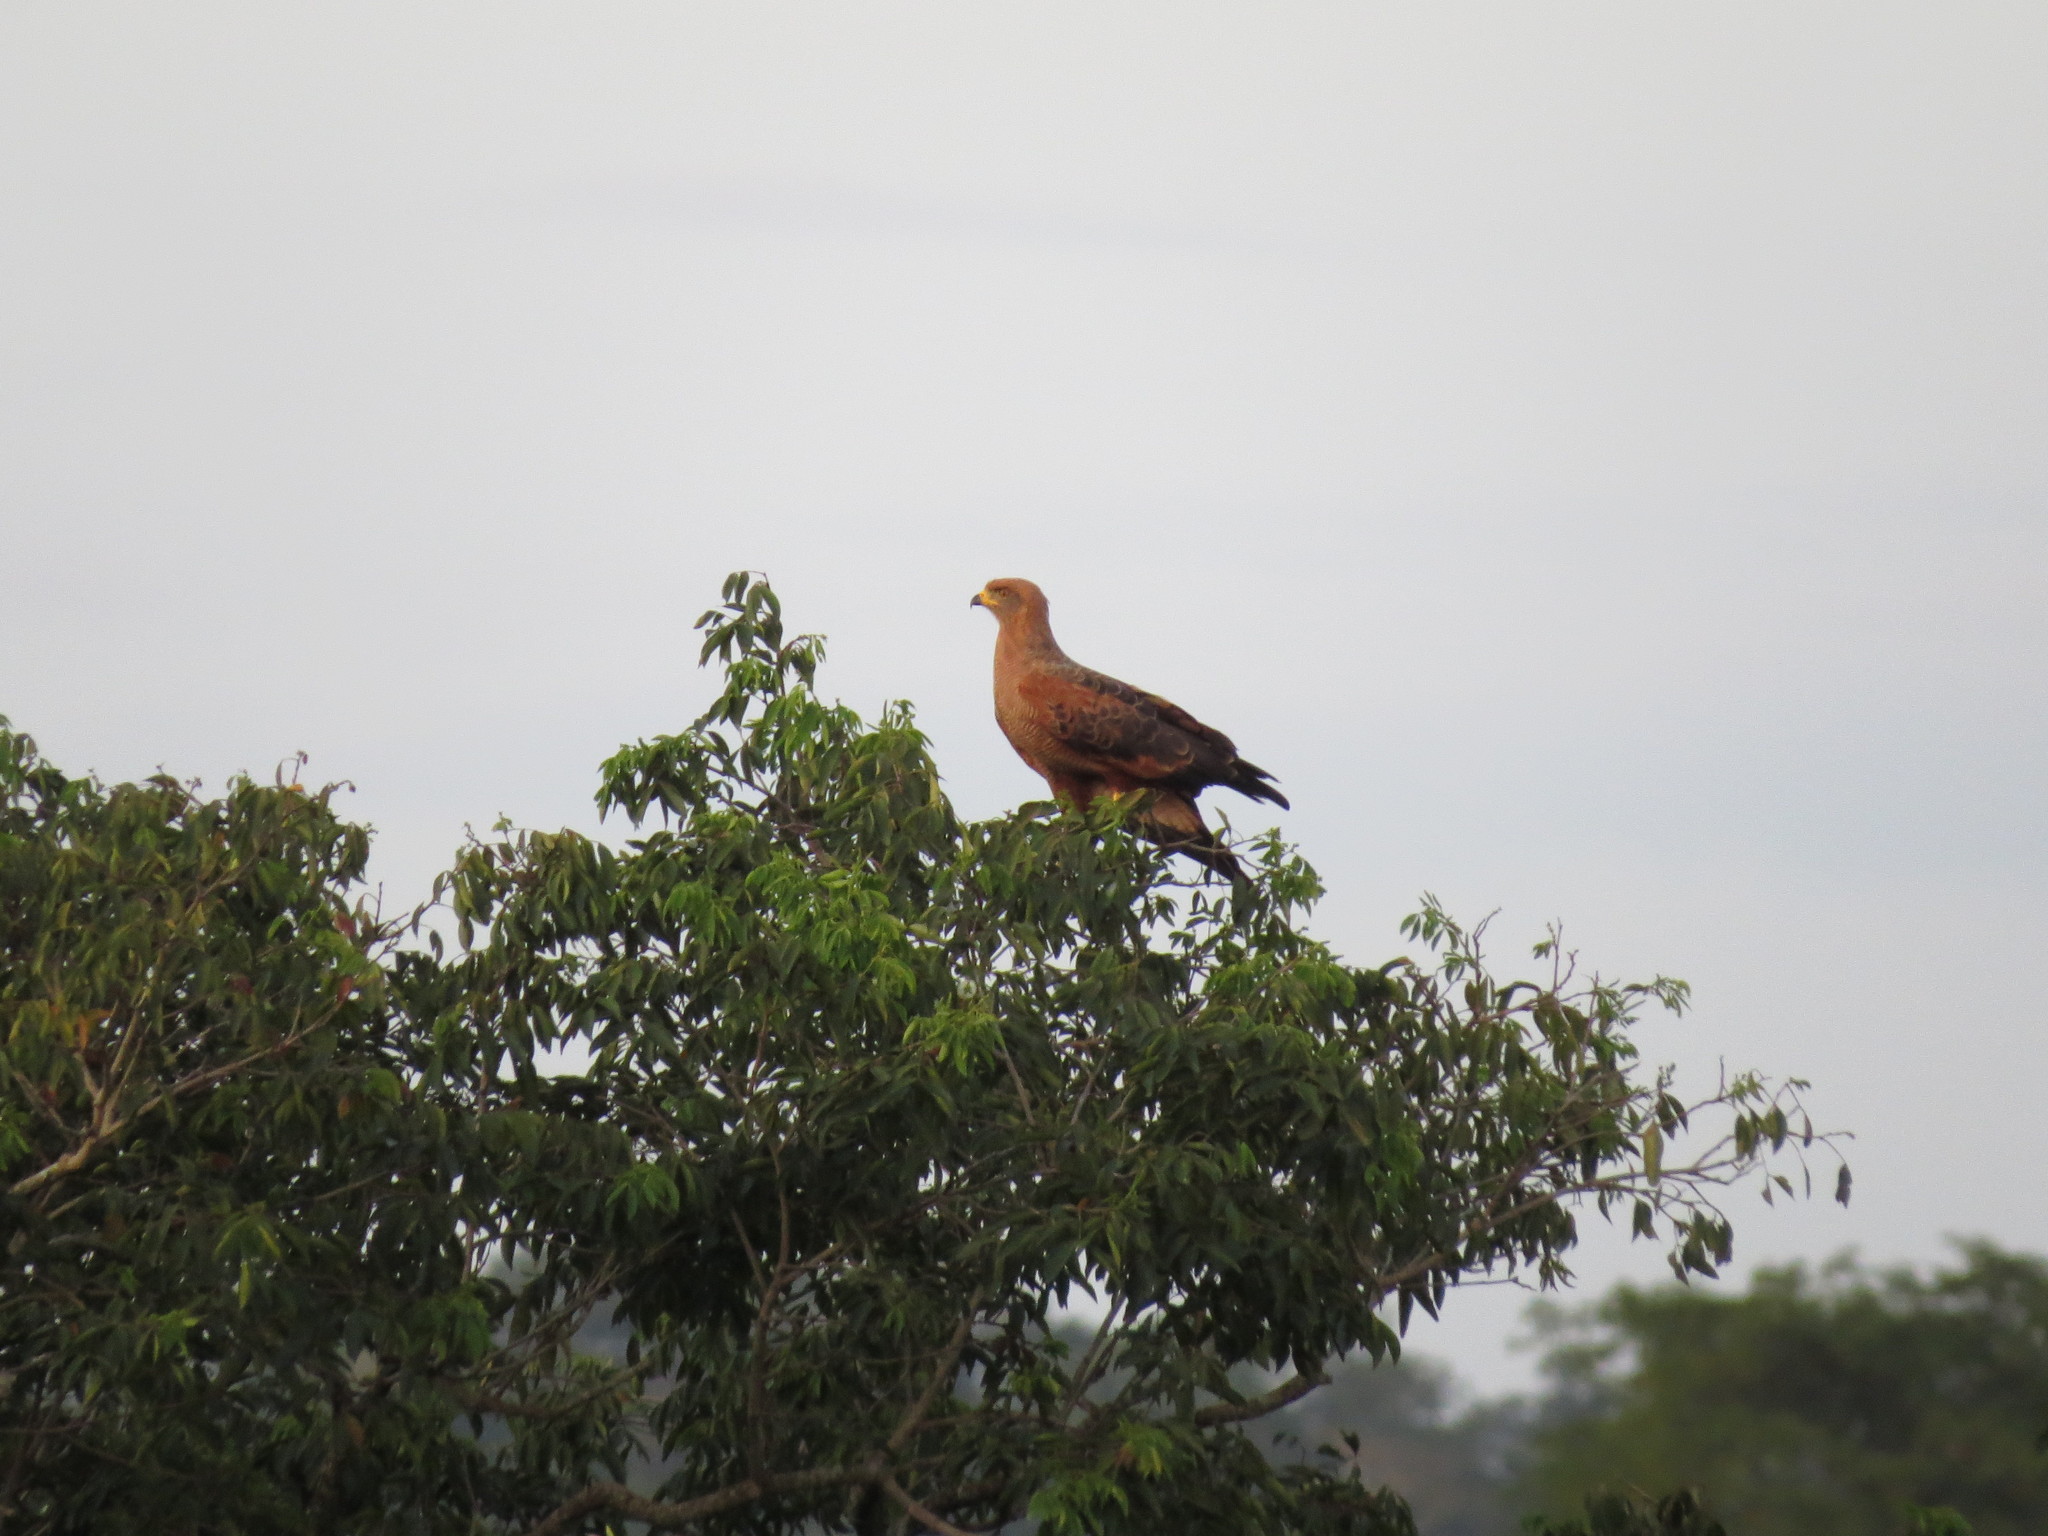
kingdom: Animalia
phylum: Chordata
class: Aves
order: Accipitriformes
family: Accipitridae
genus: Buteogallus
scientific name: Buteogallus meridionalis
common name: Savanna hawk
